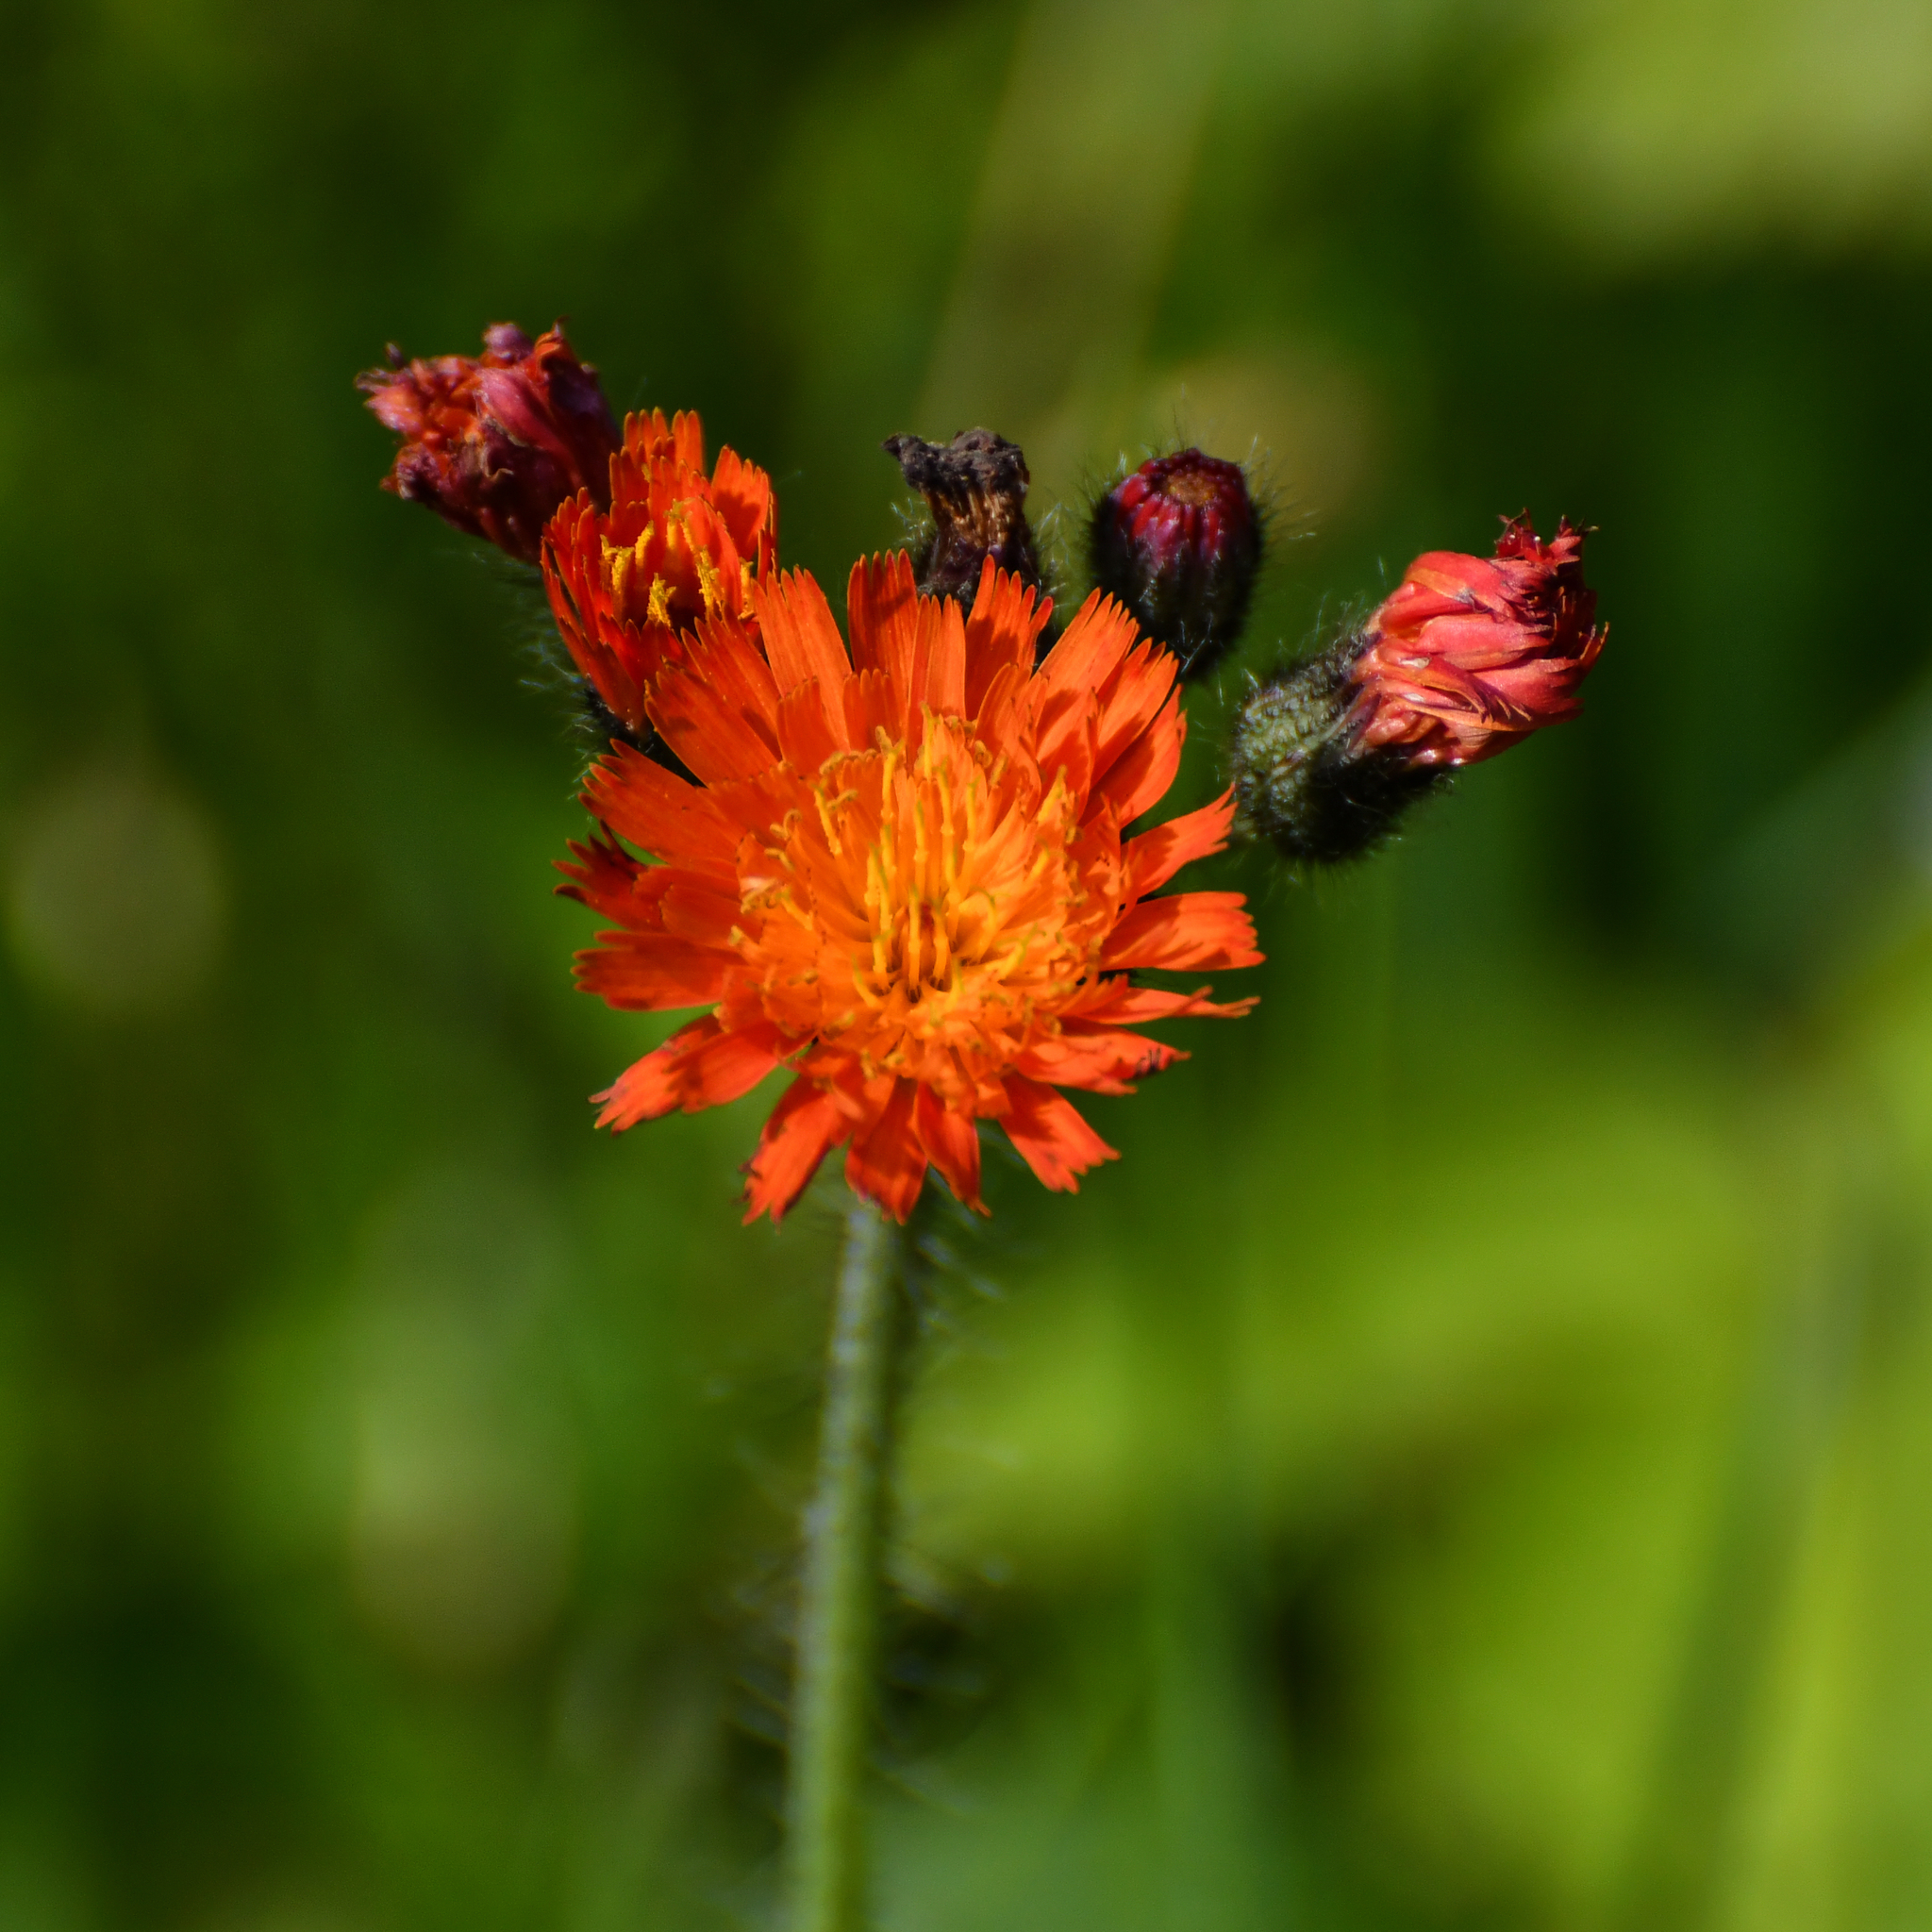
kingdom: Plantae
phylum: Tracheophyta
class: Magnoliopsida
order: Asterales
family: Asteraceae
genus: Pilosella
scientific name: Pilosella aurantiaca
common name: Fox-and-cubs
